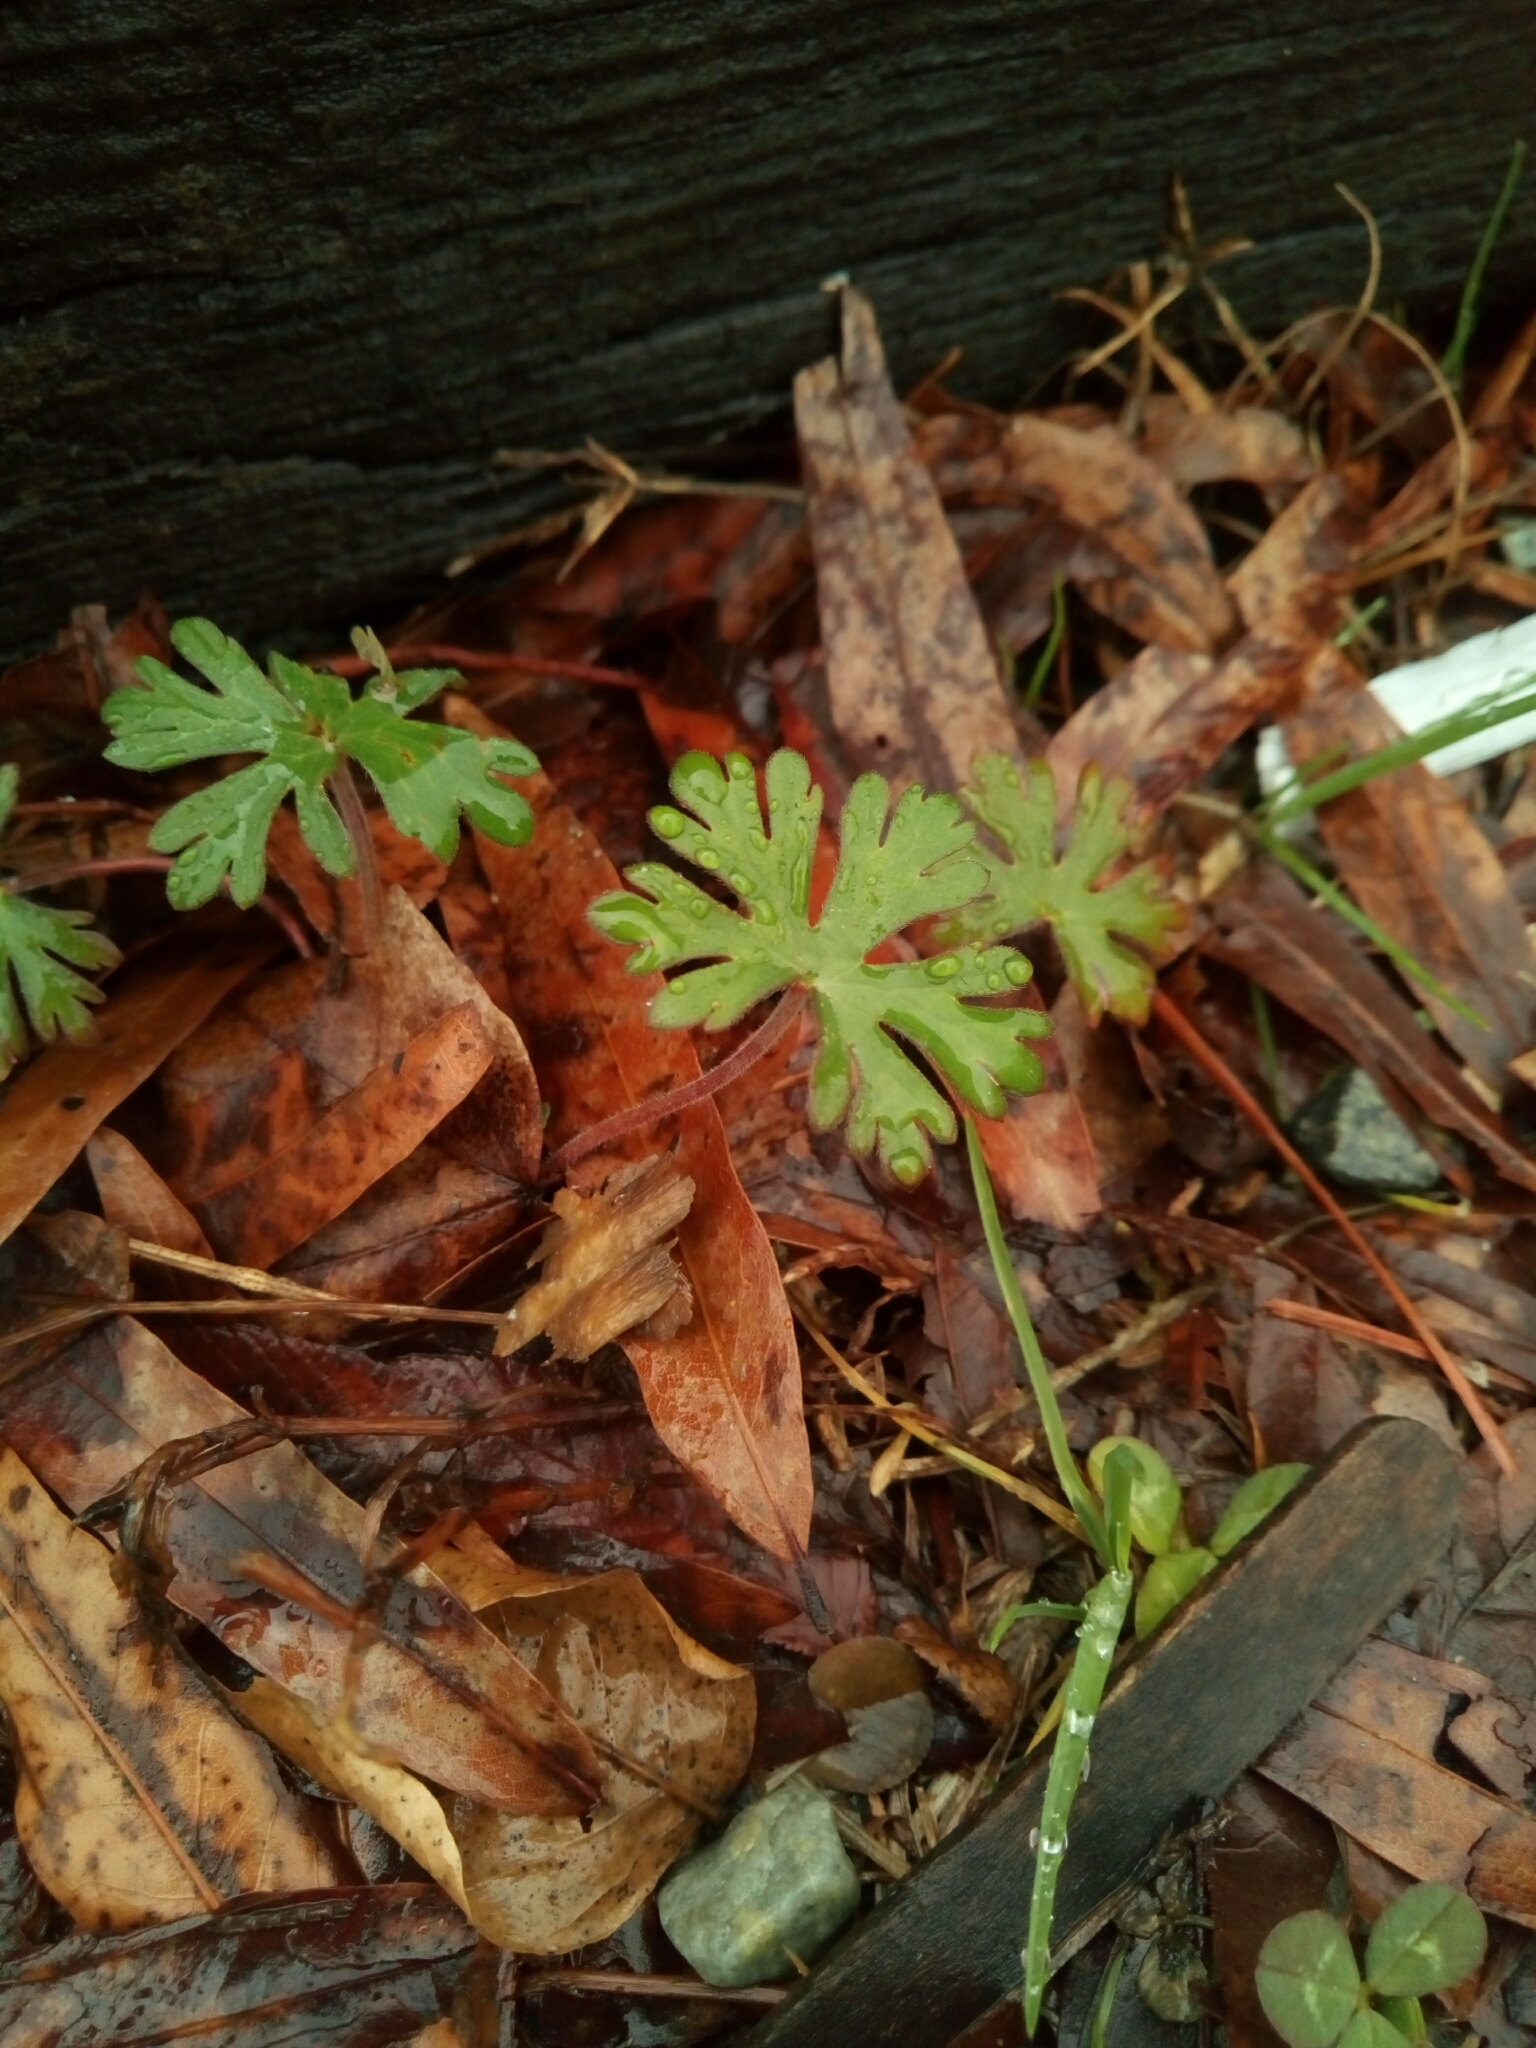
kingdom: Plantae
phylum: Tracheophyta
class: Magnoliopsida
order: Geraniales
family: Geraniaceae
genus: Geranium
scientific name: Geranium carolinianum
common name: Carolina crane's-bill
